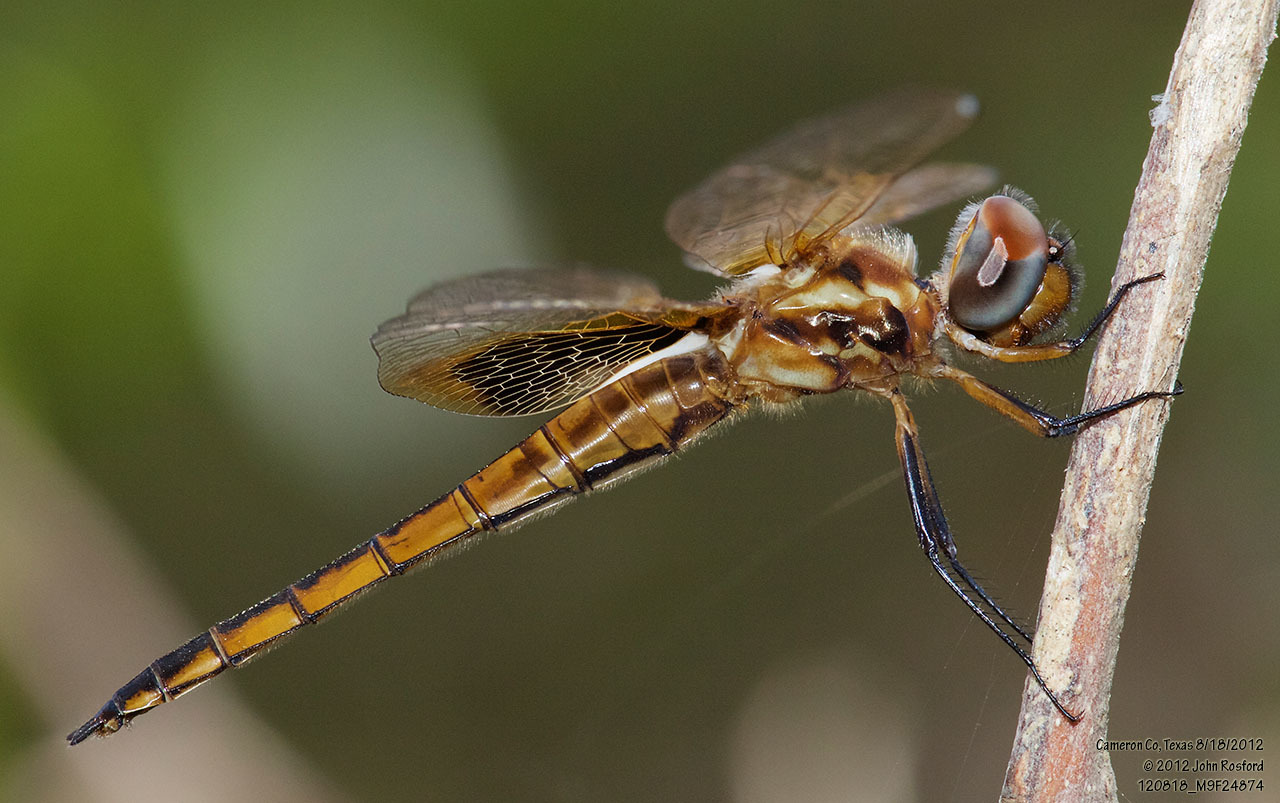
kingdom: Animalia
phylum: Arthropoda
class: Insecta
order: Odonata
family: Libellulidae
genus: Miathyria
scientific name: Miathyria marcella
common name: Hyacinth glider
